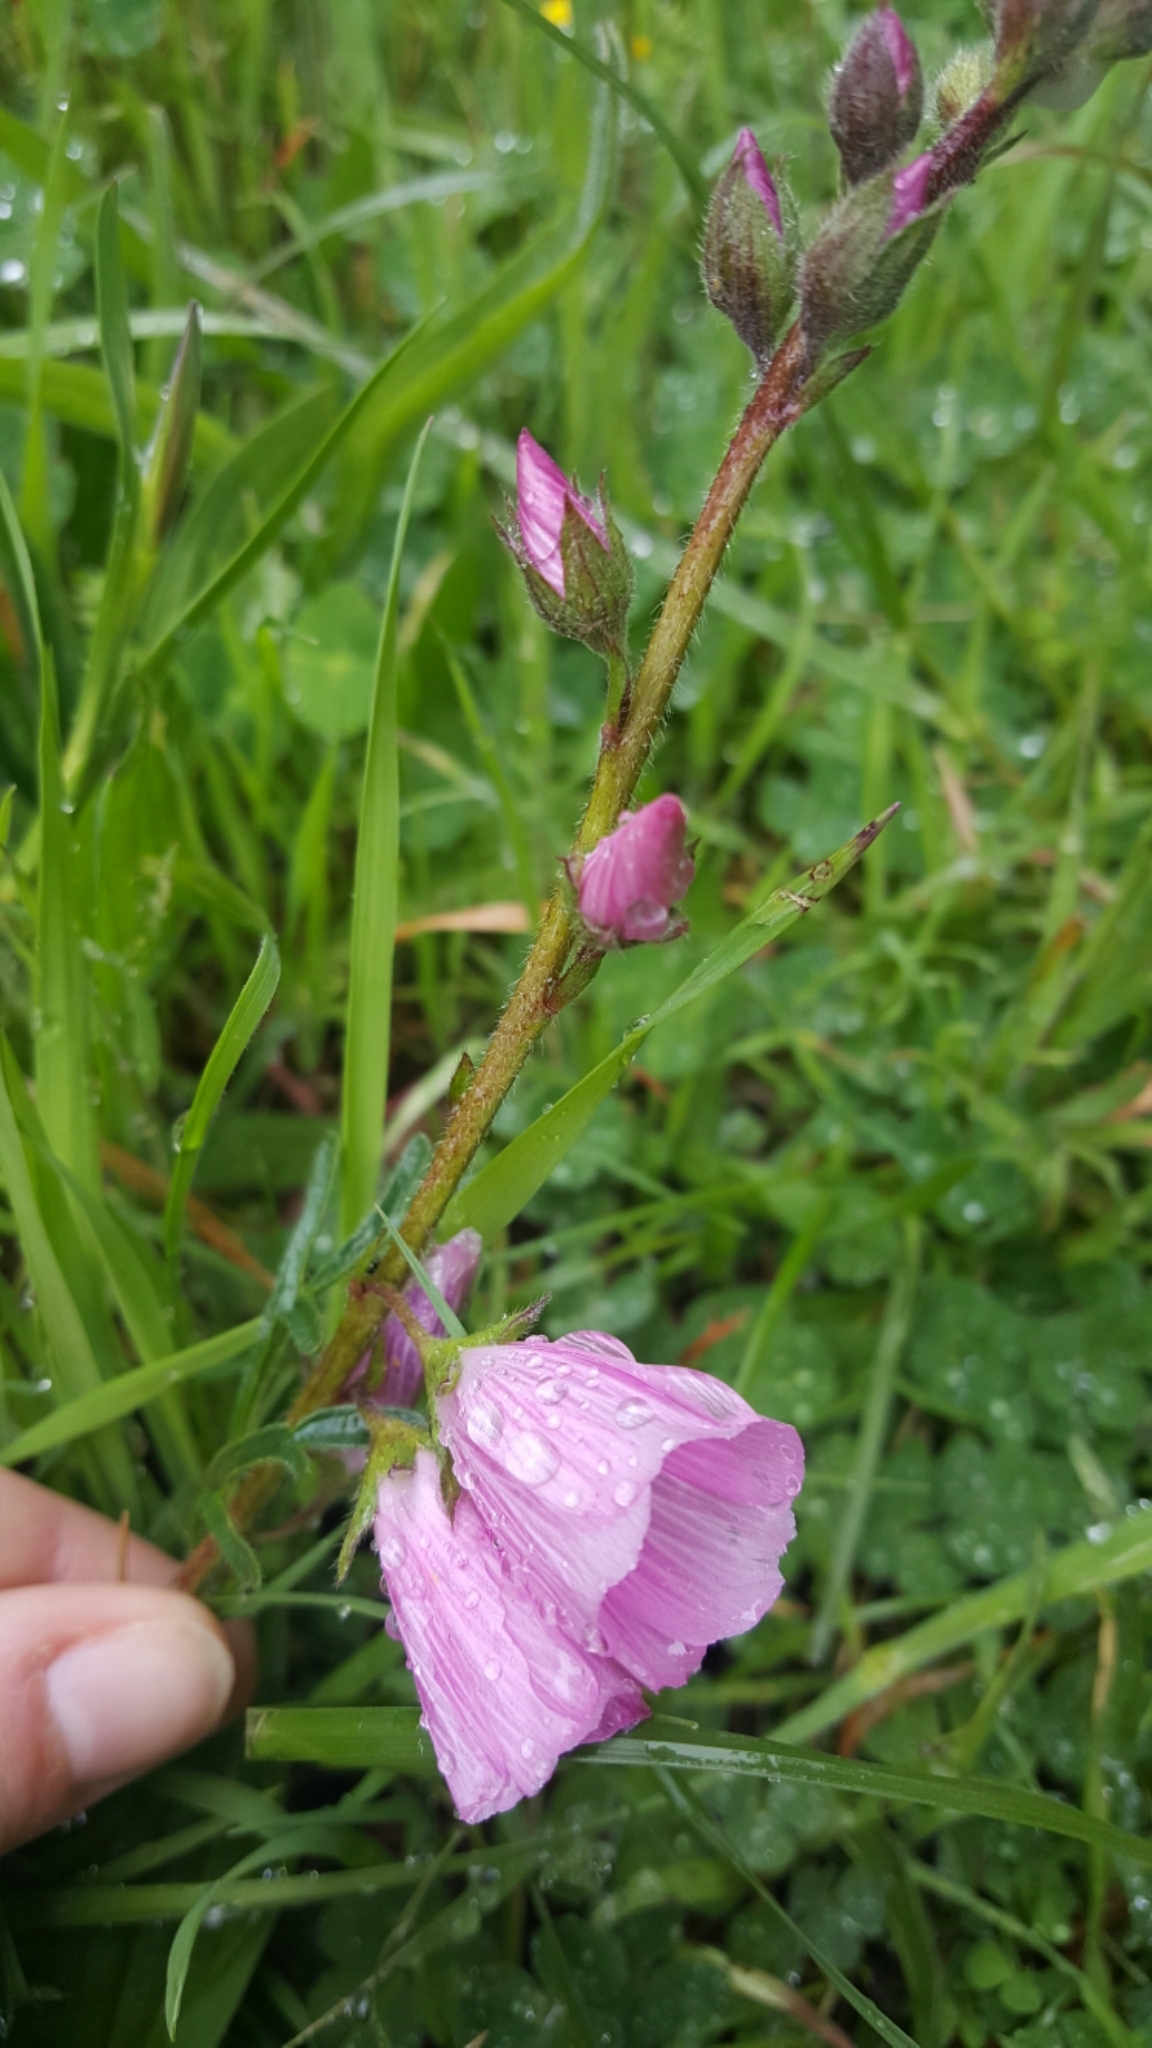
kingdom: Plantae
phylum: Tracheophyta
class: Magnoliopsida
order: Malvales
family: Malvaceae
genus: Sidalcea
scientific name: Sidalcea malviflora
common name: Greek mallow
